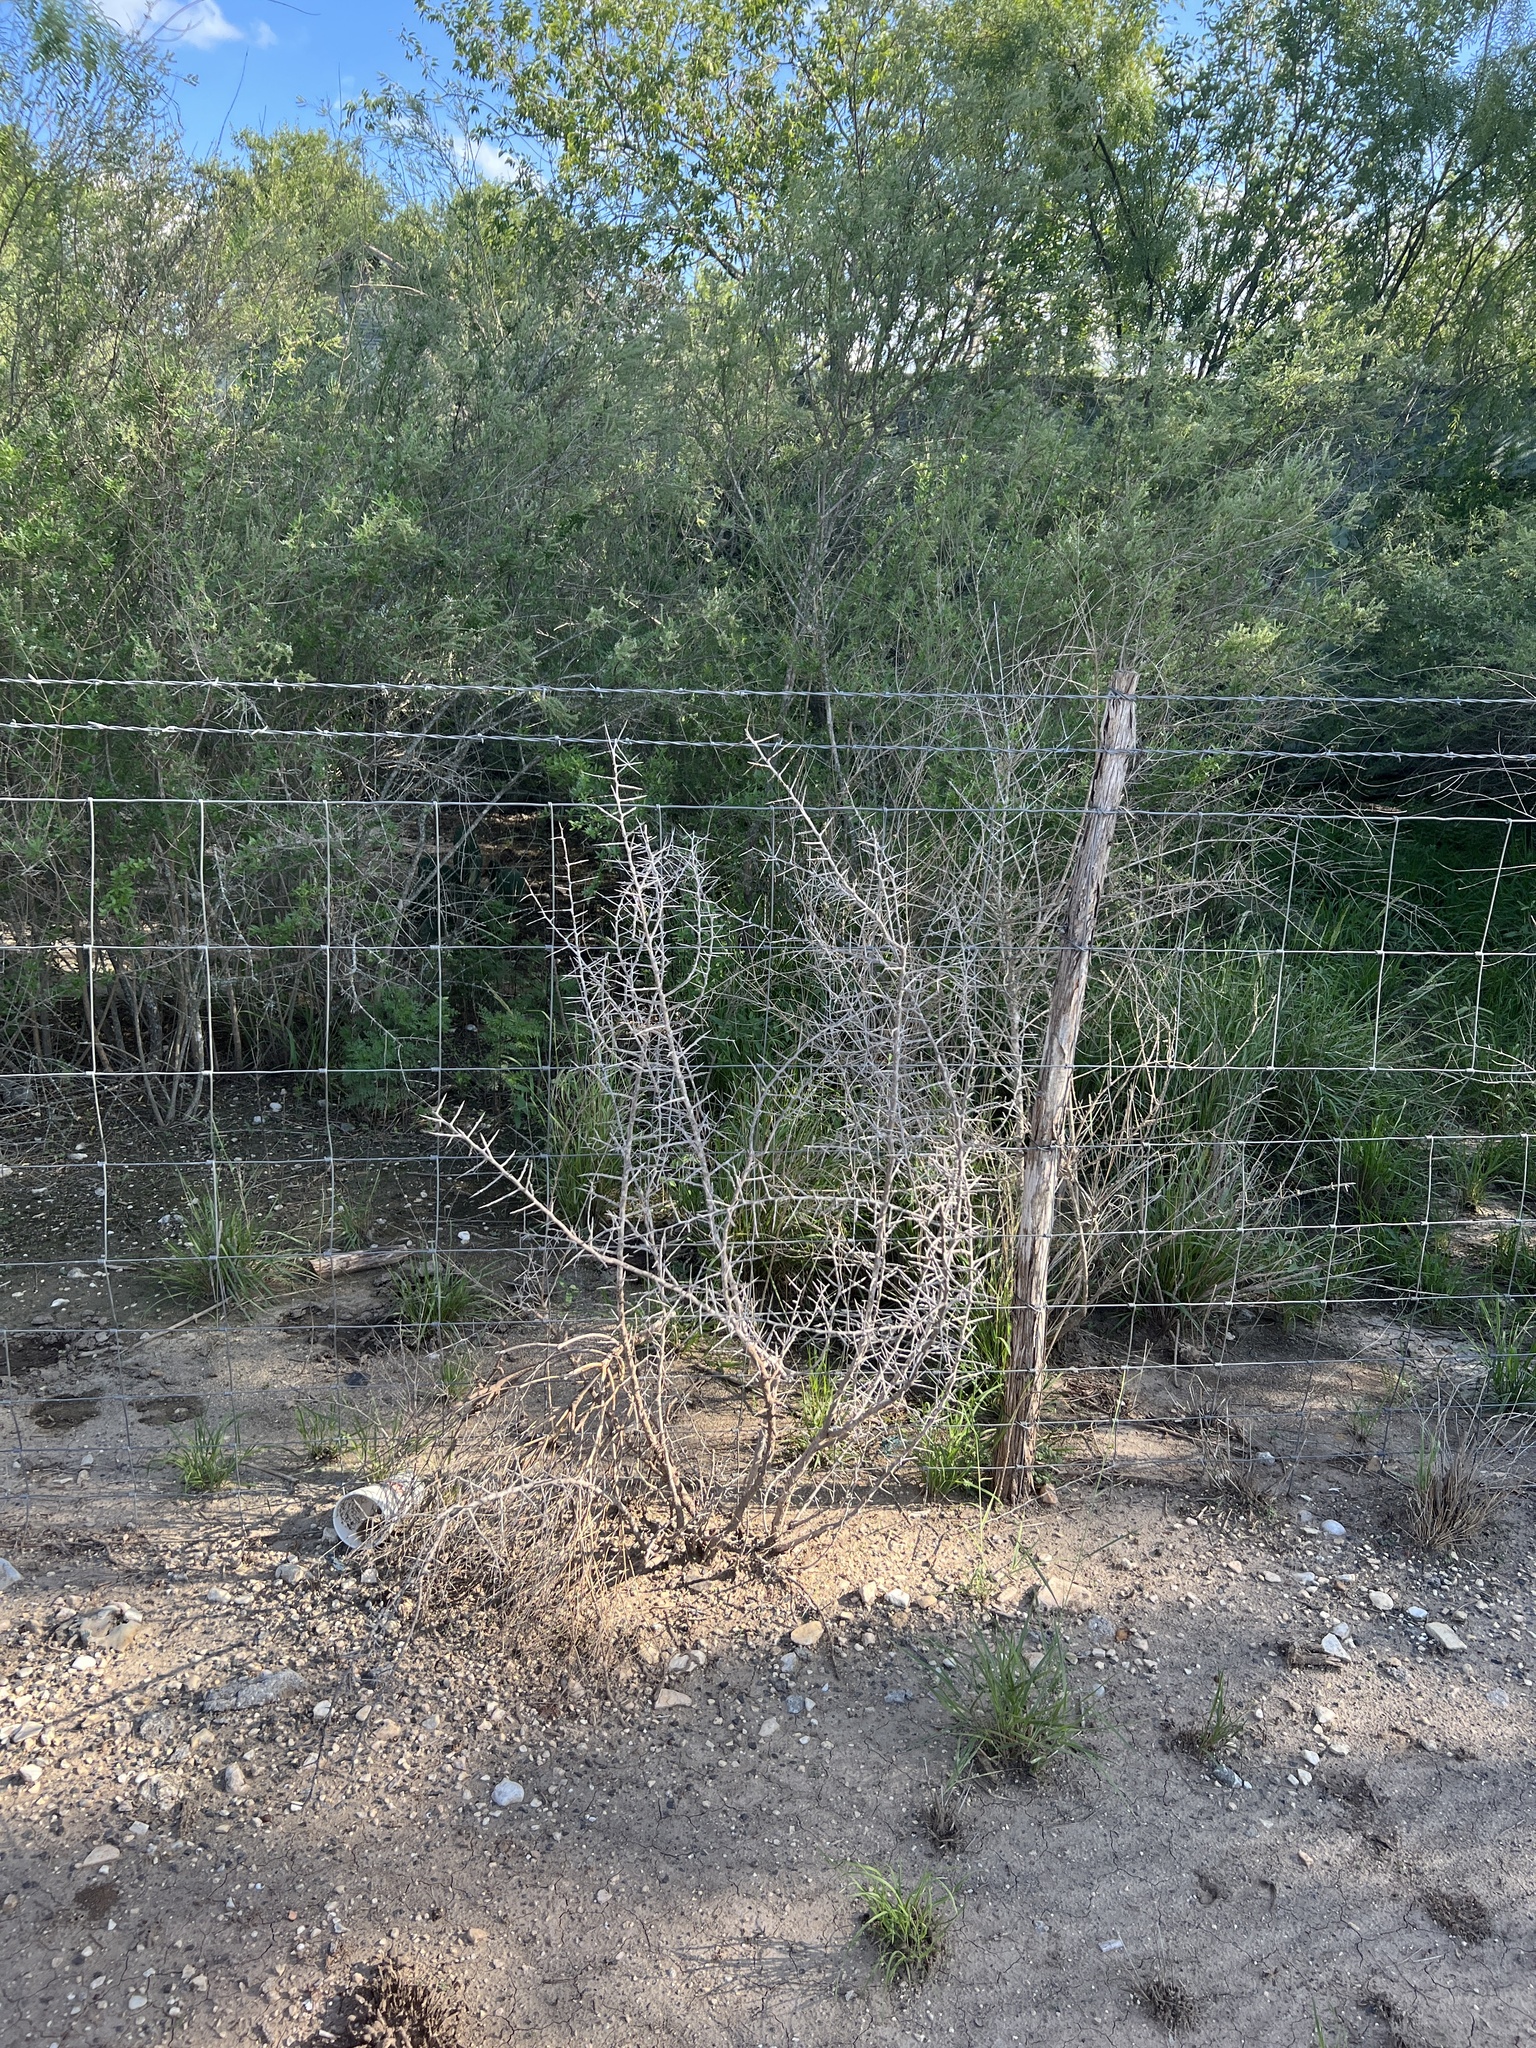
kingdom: Plantae
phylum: Tracheophyta
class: Magnoliopsida
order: Rosales
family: Rhamnaceae
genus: Sarcomphalus
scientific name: Sarcomphalus obtusifolius
